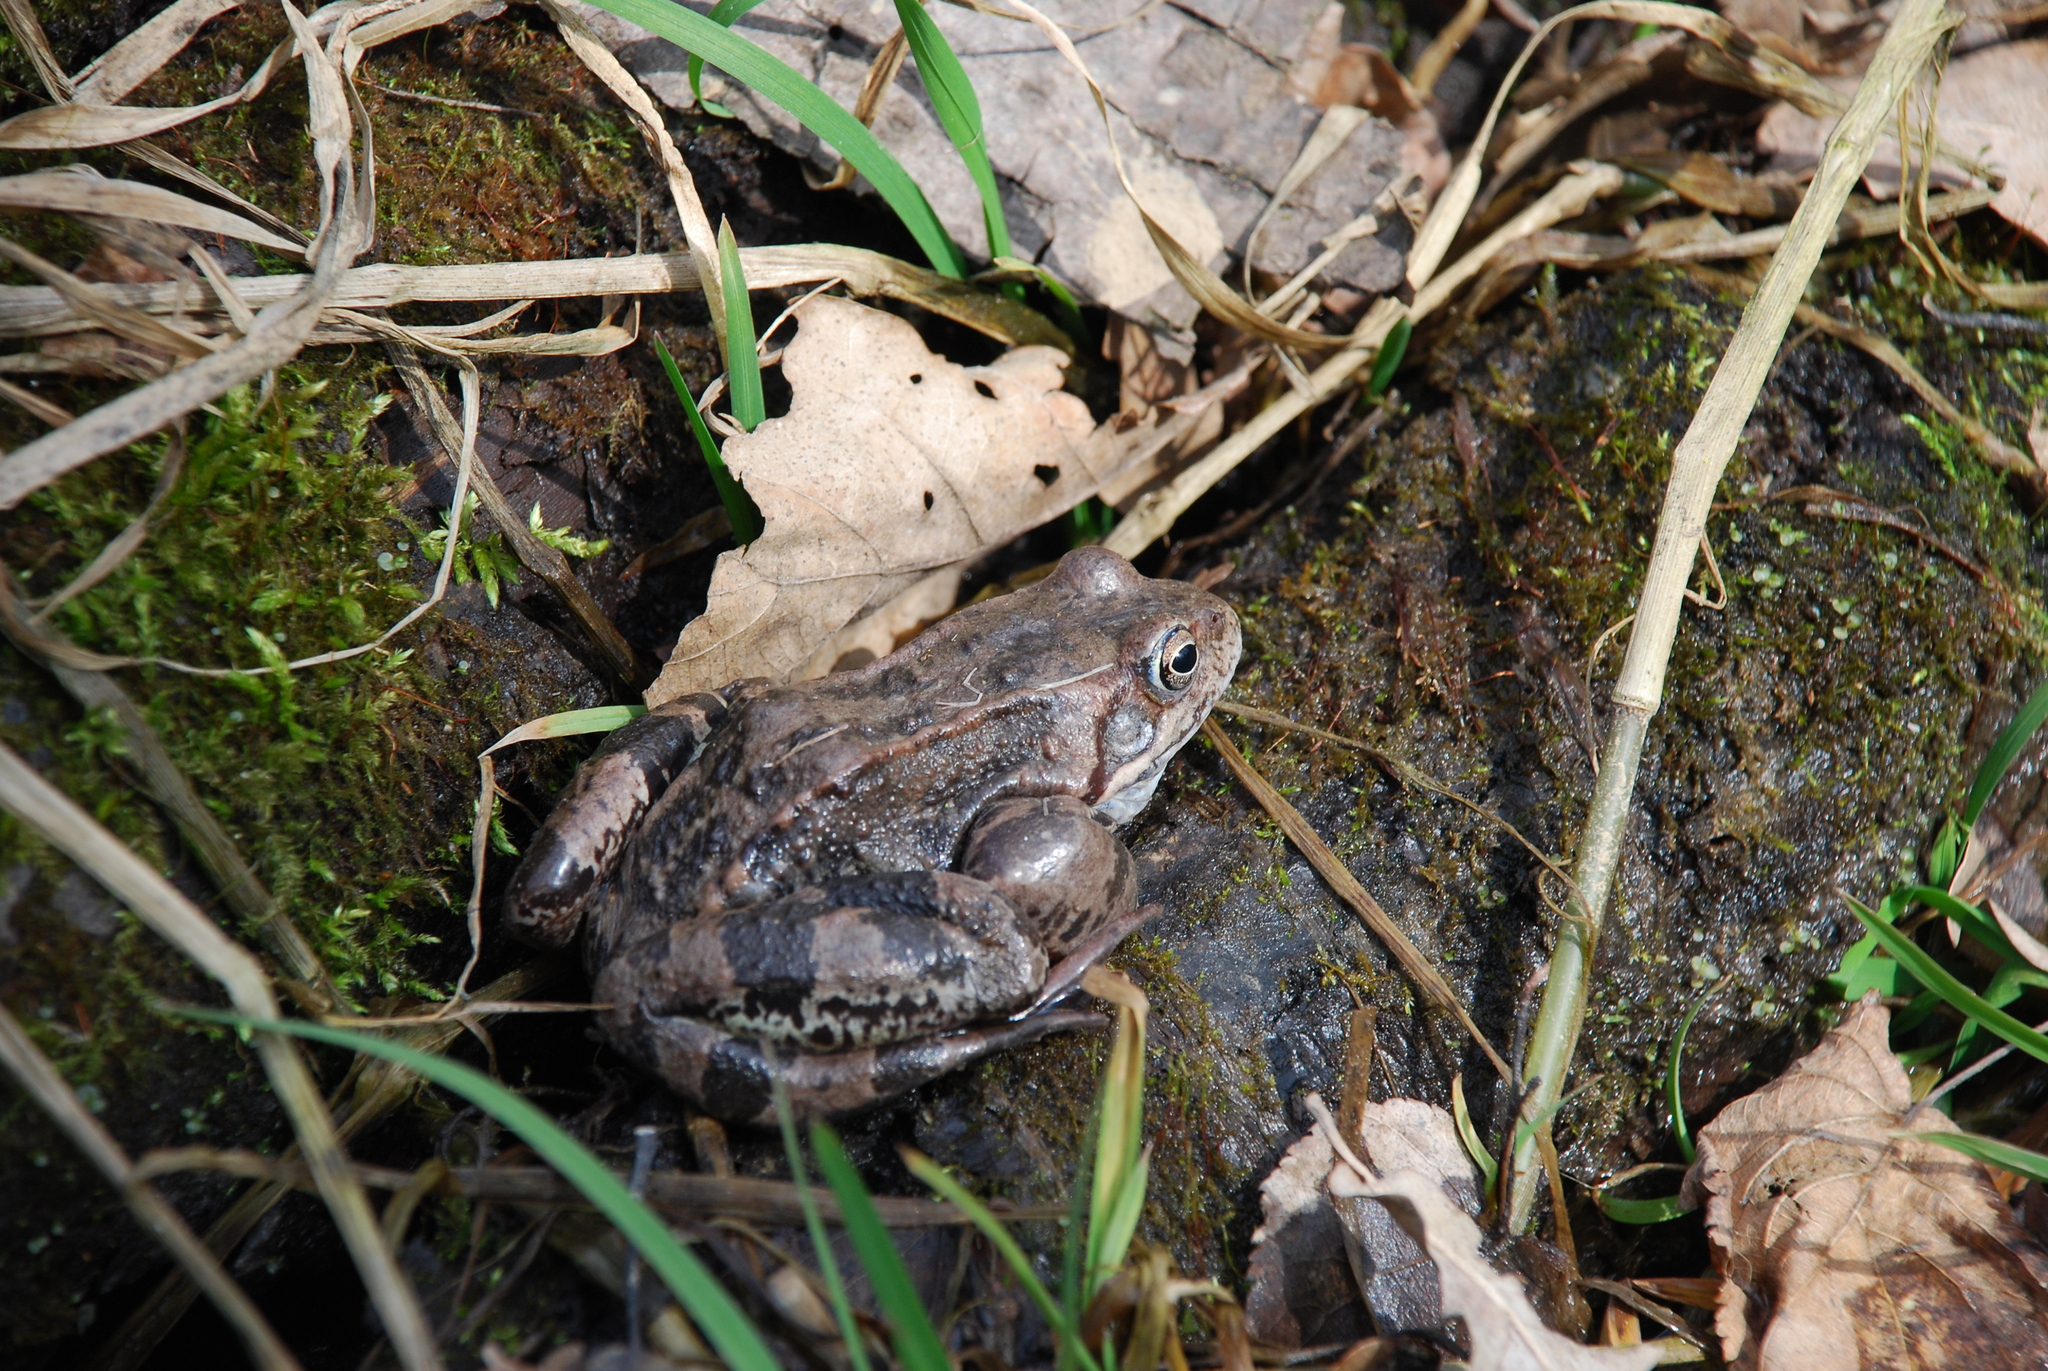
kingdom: Animalia
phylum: Chordata
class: Amphibia
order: Anura
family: Ranidae
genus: Rana
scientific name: Rana temporaria
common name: Common frog
